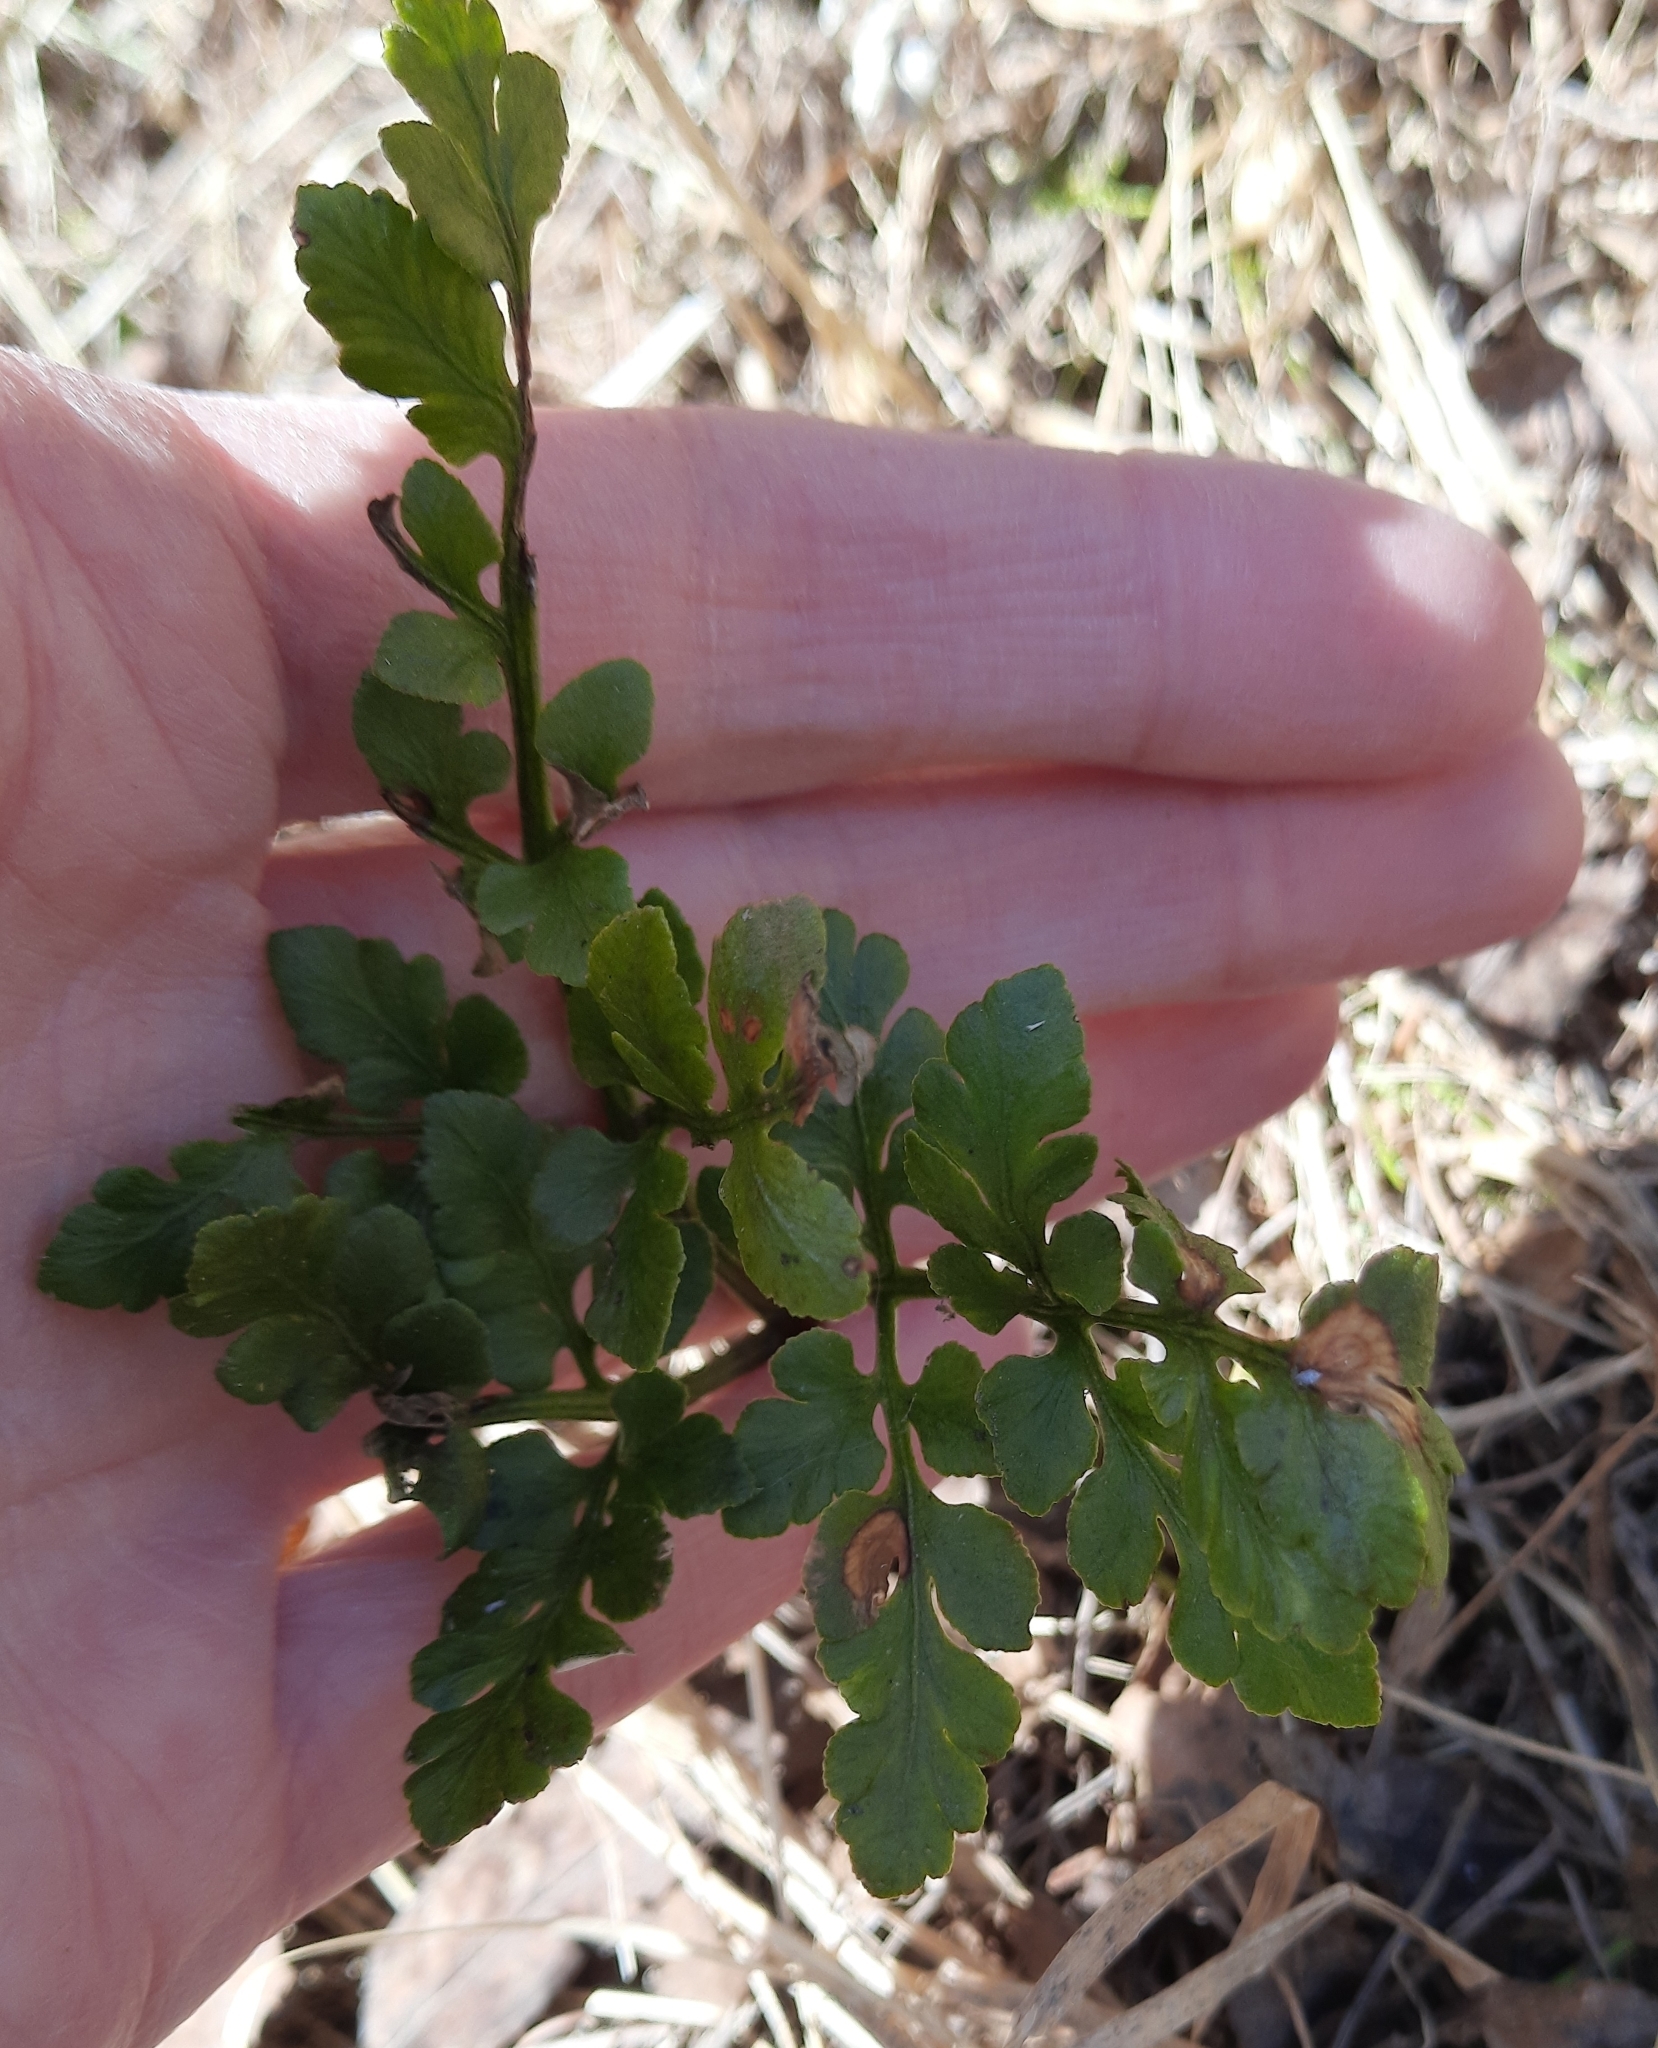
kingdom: Plantae
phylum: Tracheophyta
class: Polypodiopsida
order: Ophioglossales
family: Ophioglossaceae
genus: Sceptridium
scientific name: Sceptridium multifidum
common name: Leathery grape fern
